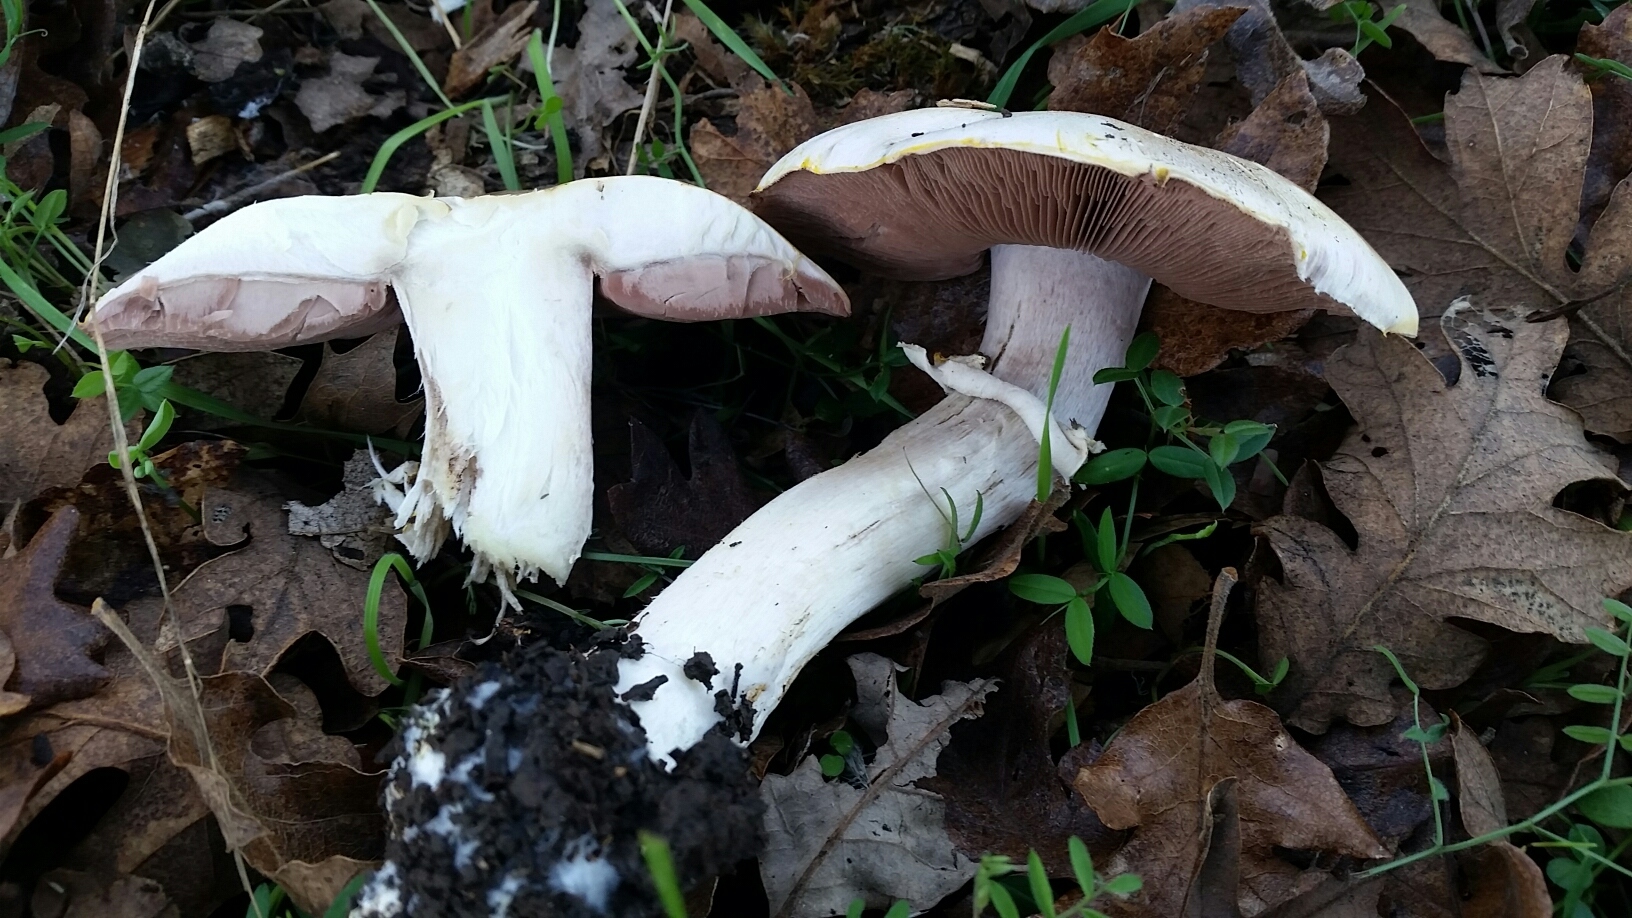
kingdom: Fungi
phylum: Basidiomycota
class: Agaricomycetes
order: Agaricales
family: Agaricaceae
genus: Agaricus
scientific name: Agaricus californicus
